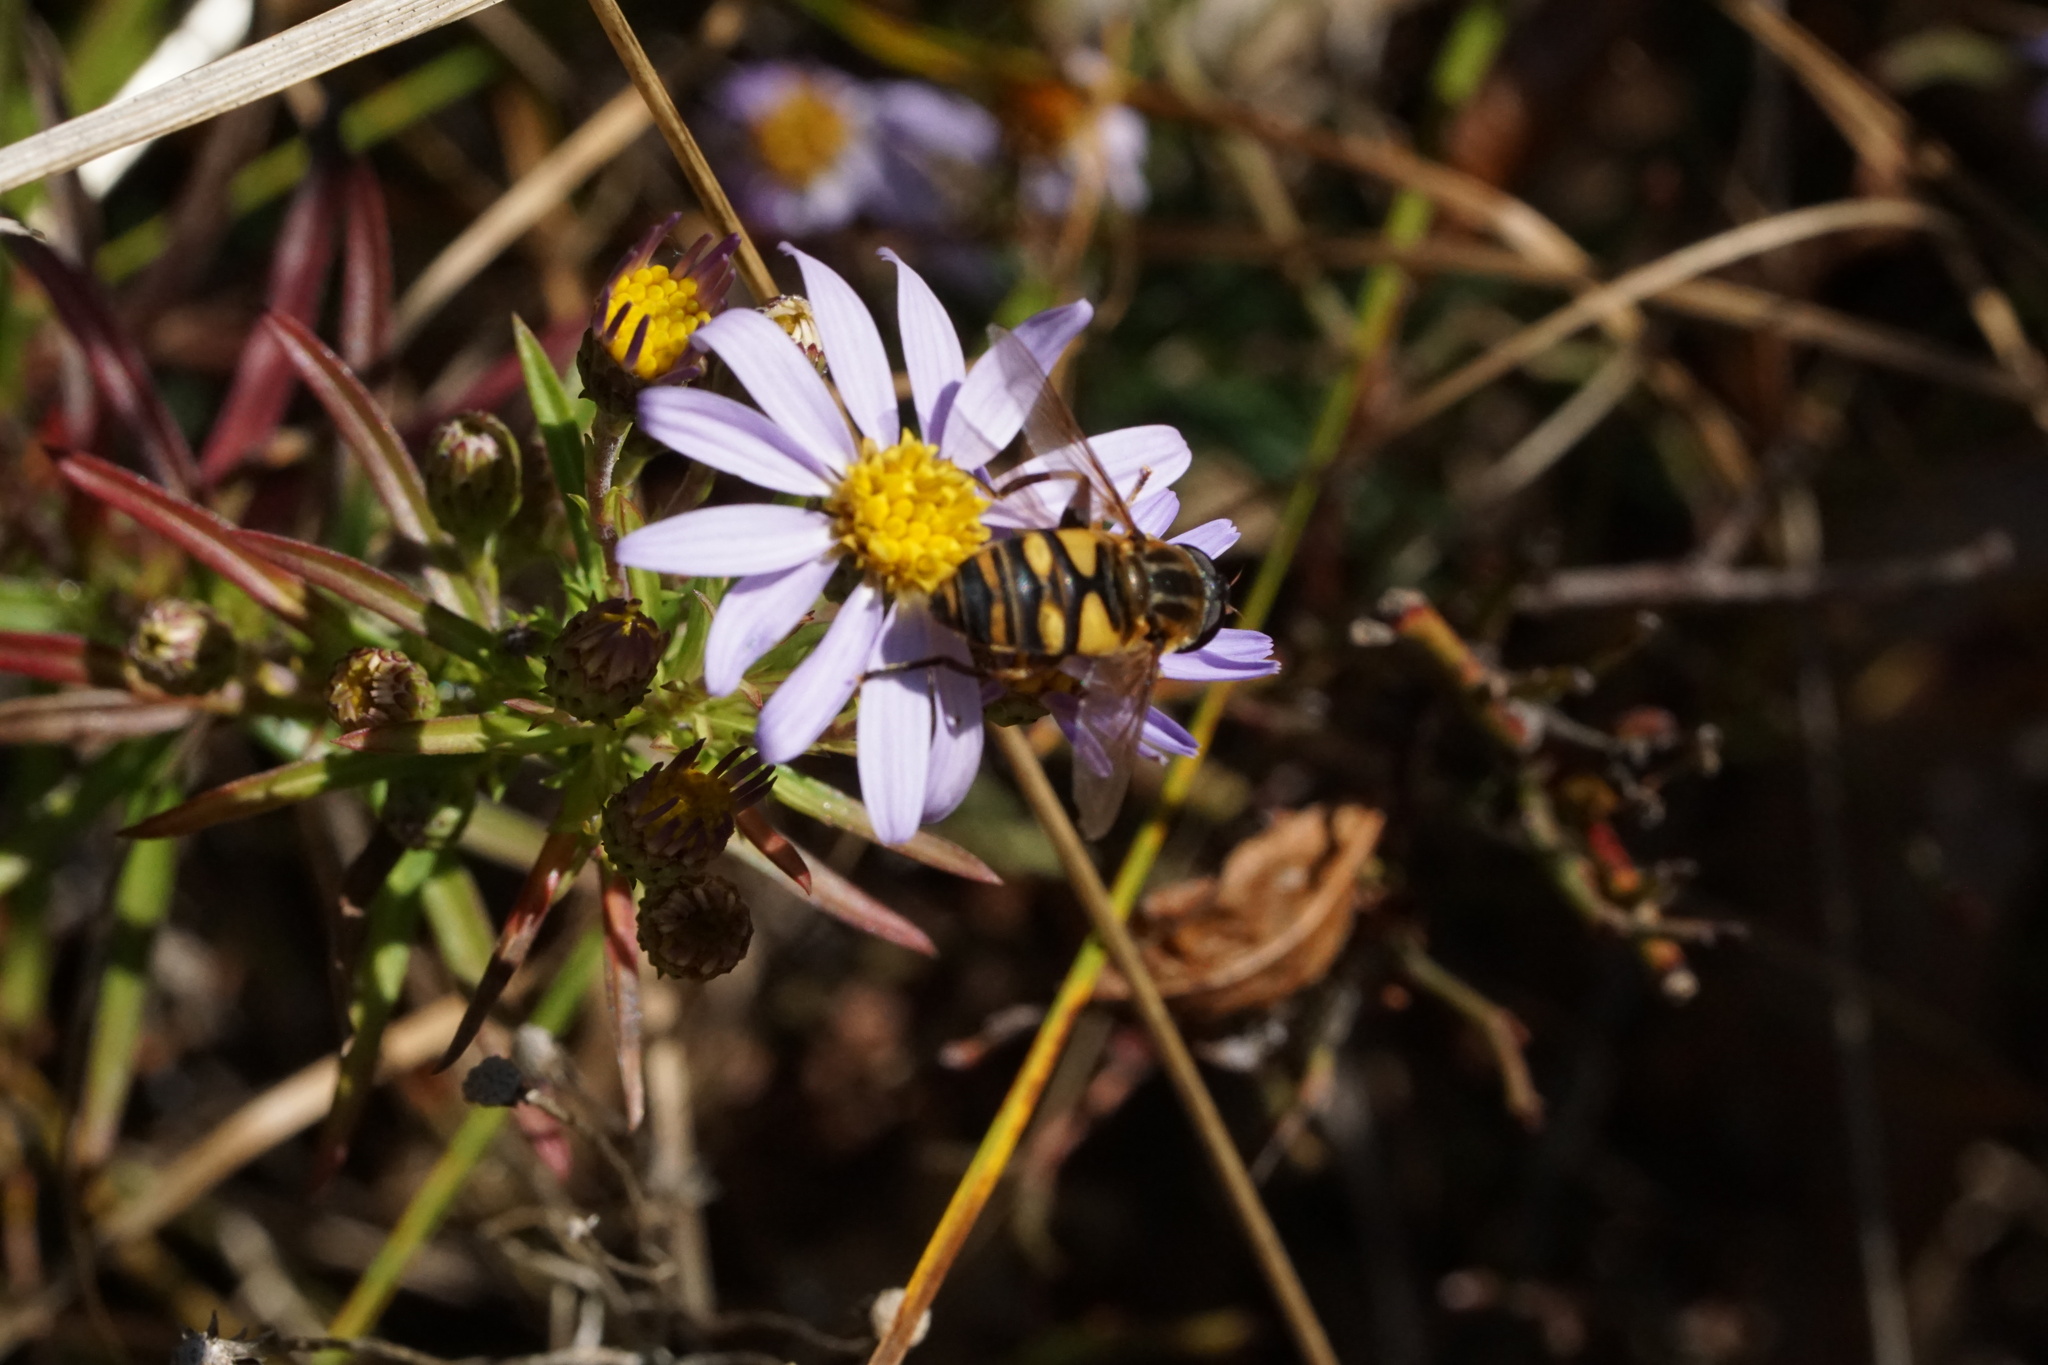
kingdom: Animalia
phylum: Arthropoda
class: Insecta
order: Diptera
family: Syrphidae
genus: Helophilus
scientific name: Helophilus fasciatus
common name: Narrow-headed marsh fly
